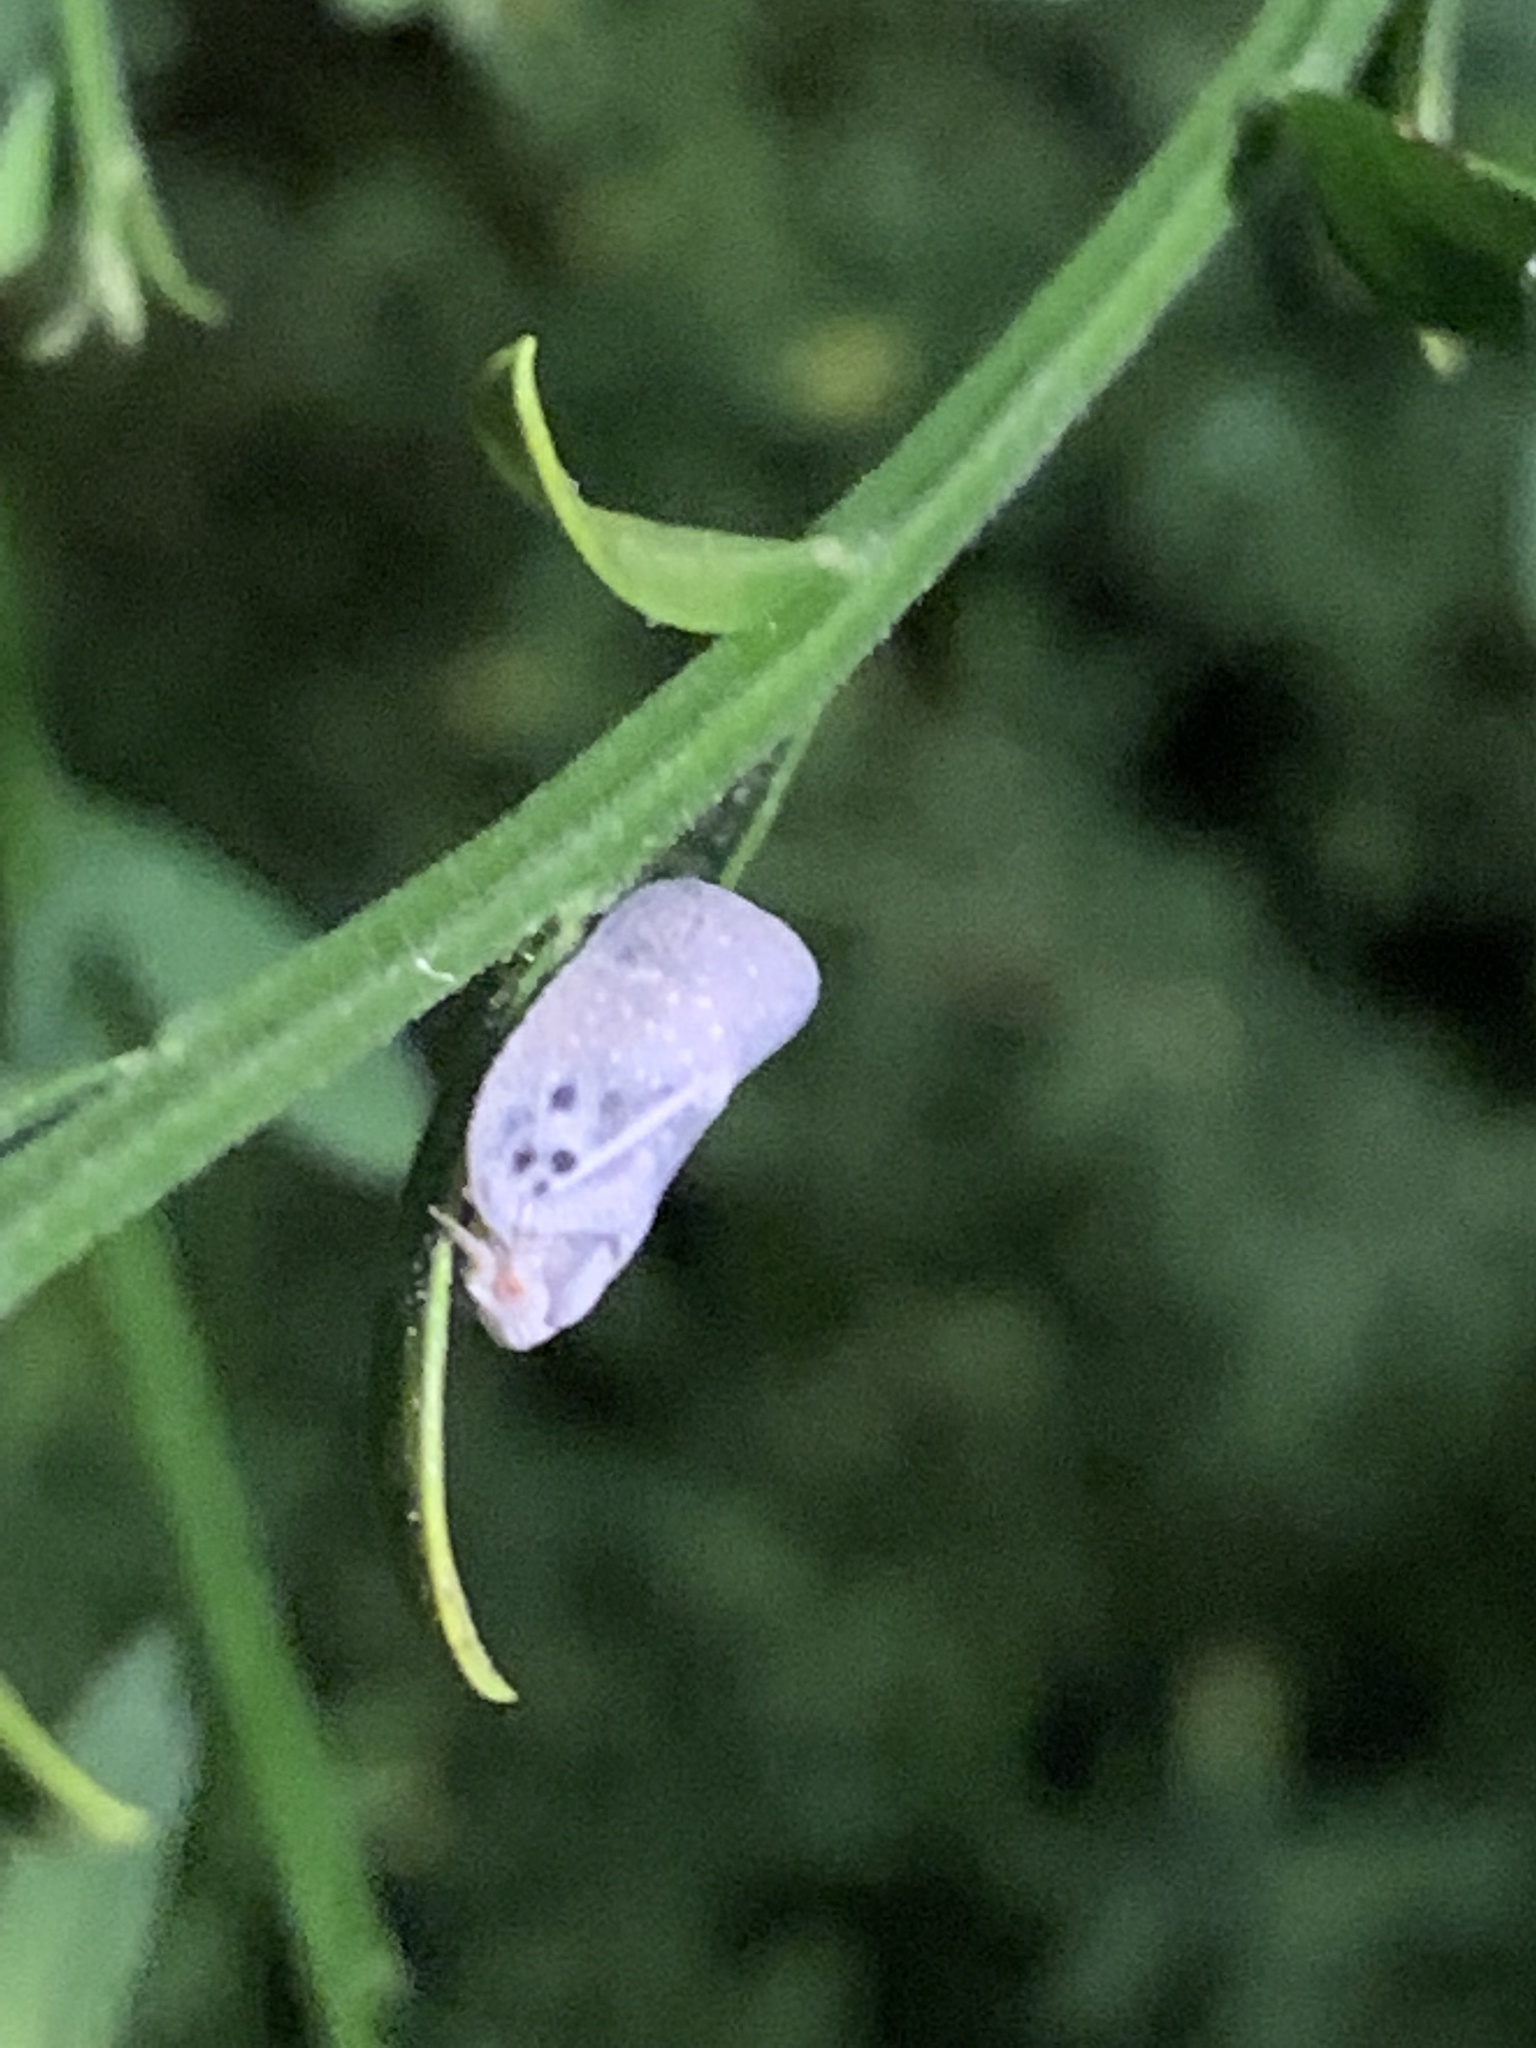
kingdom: Animalia
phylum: Arthropoda
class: Insecta
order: Hemiptera
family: Flatidae
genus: Metcalfa
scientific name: Metcalfa pruinosa
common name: Citrus flatid planthopper
